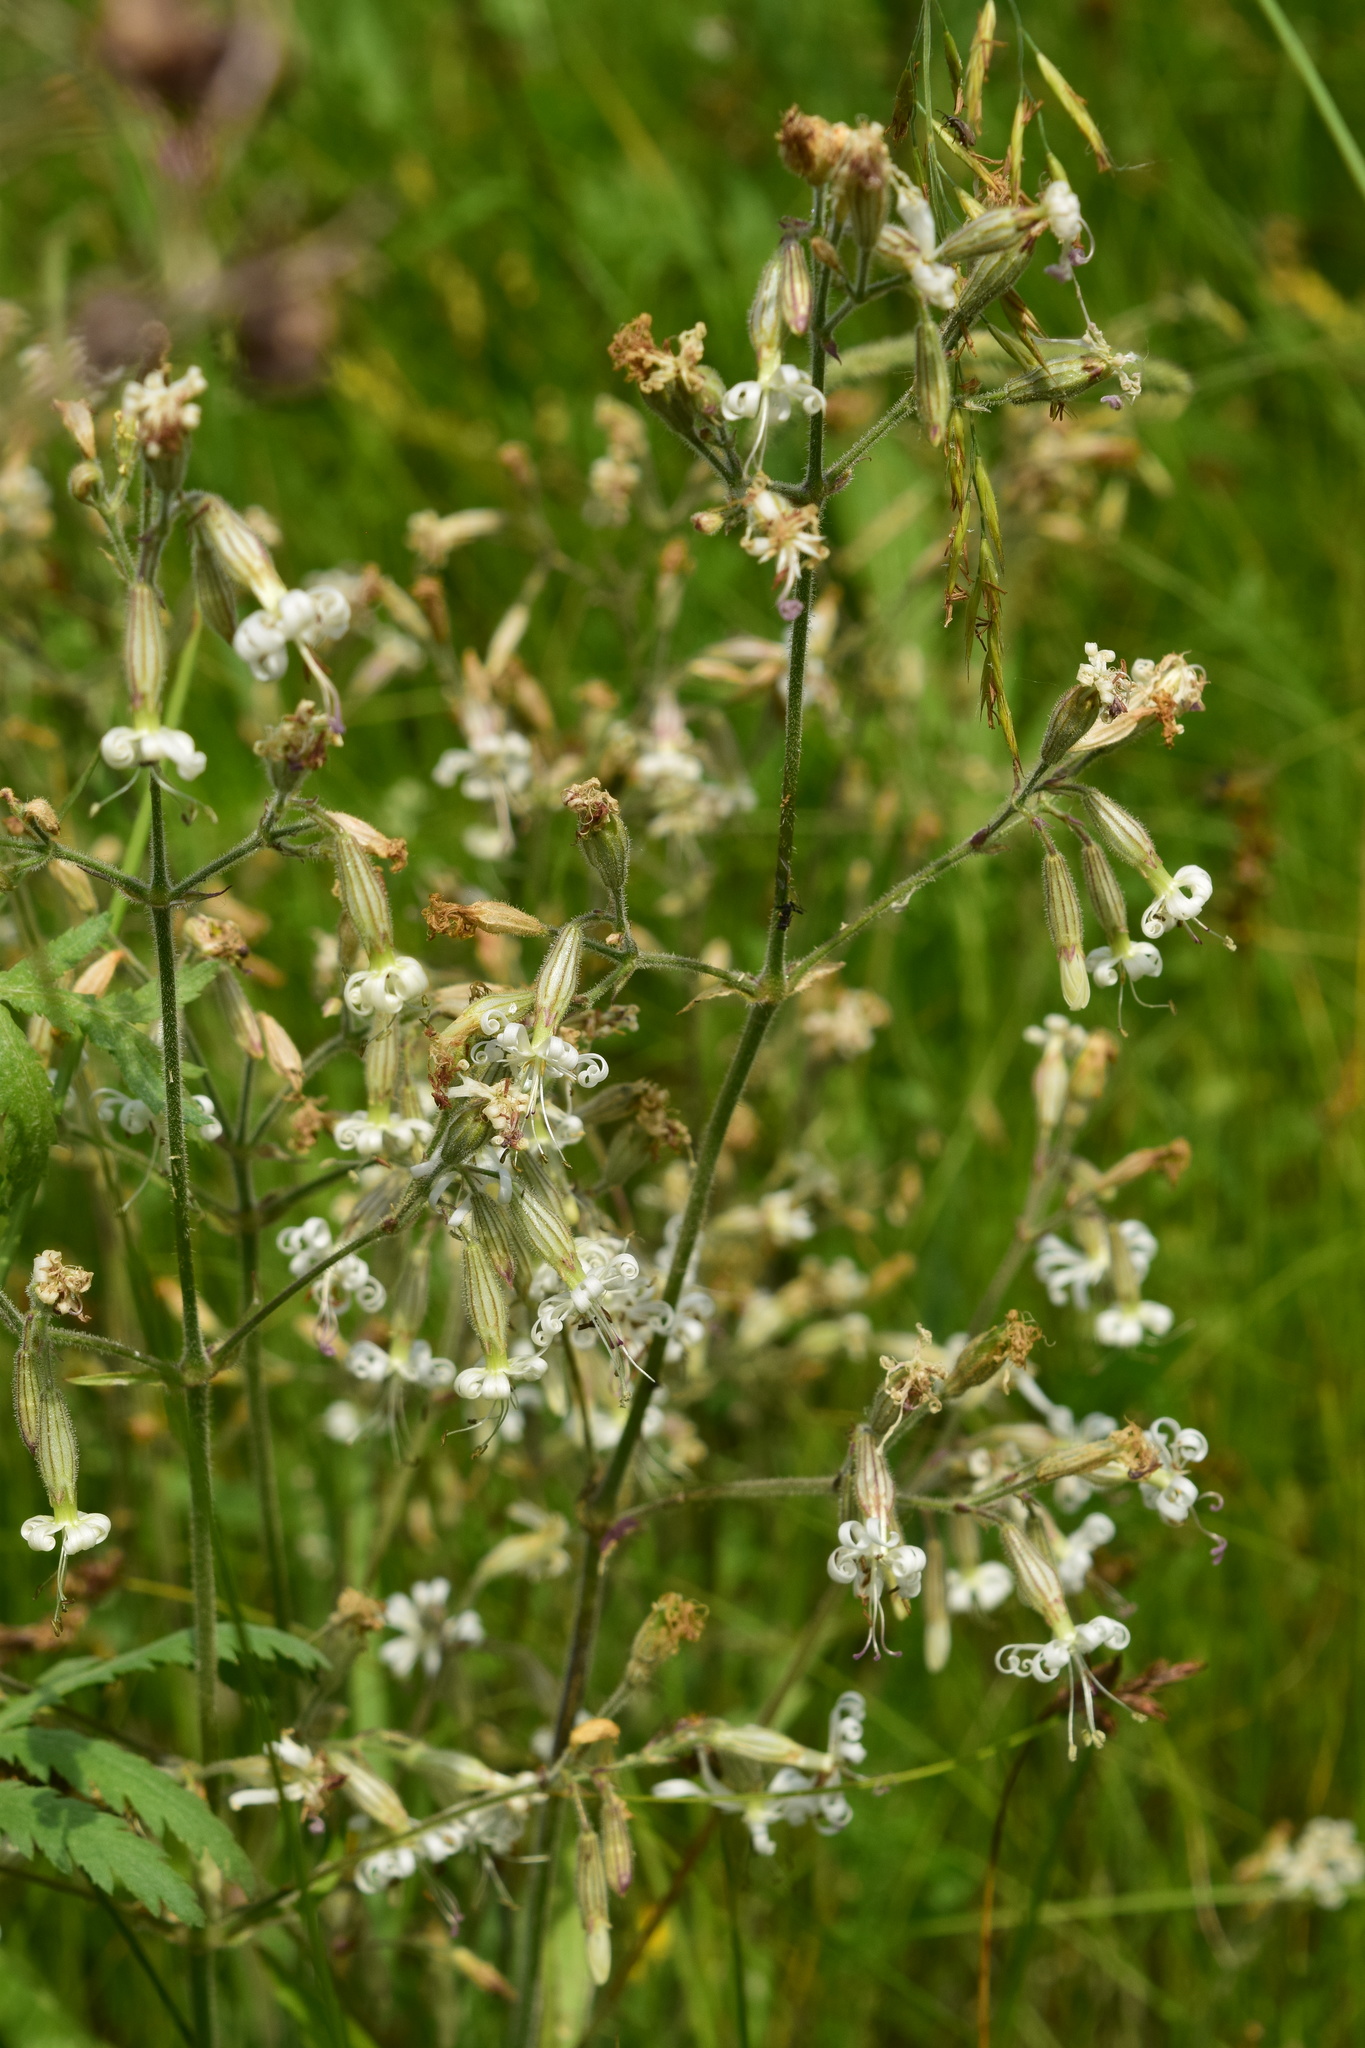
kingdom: Plantae
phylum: Tracheophyta
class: Magnoliopsida
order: Caryophyllales
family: Caryophyllaceae
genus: Silene
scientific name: Silene nutans
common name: Nottingham catchfly
